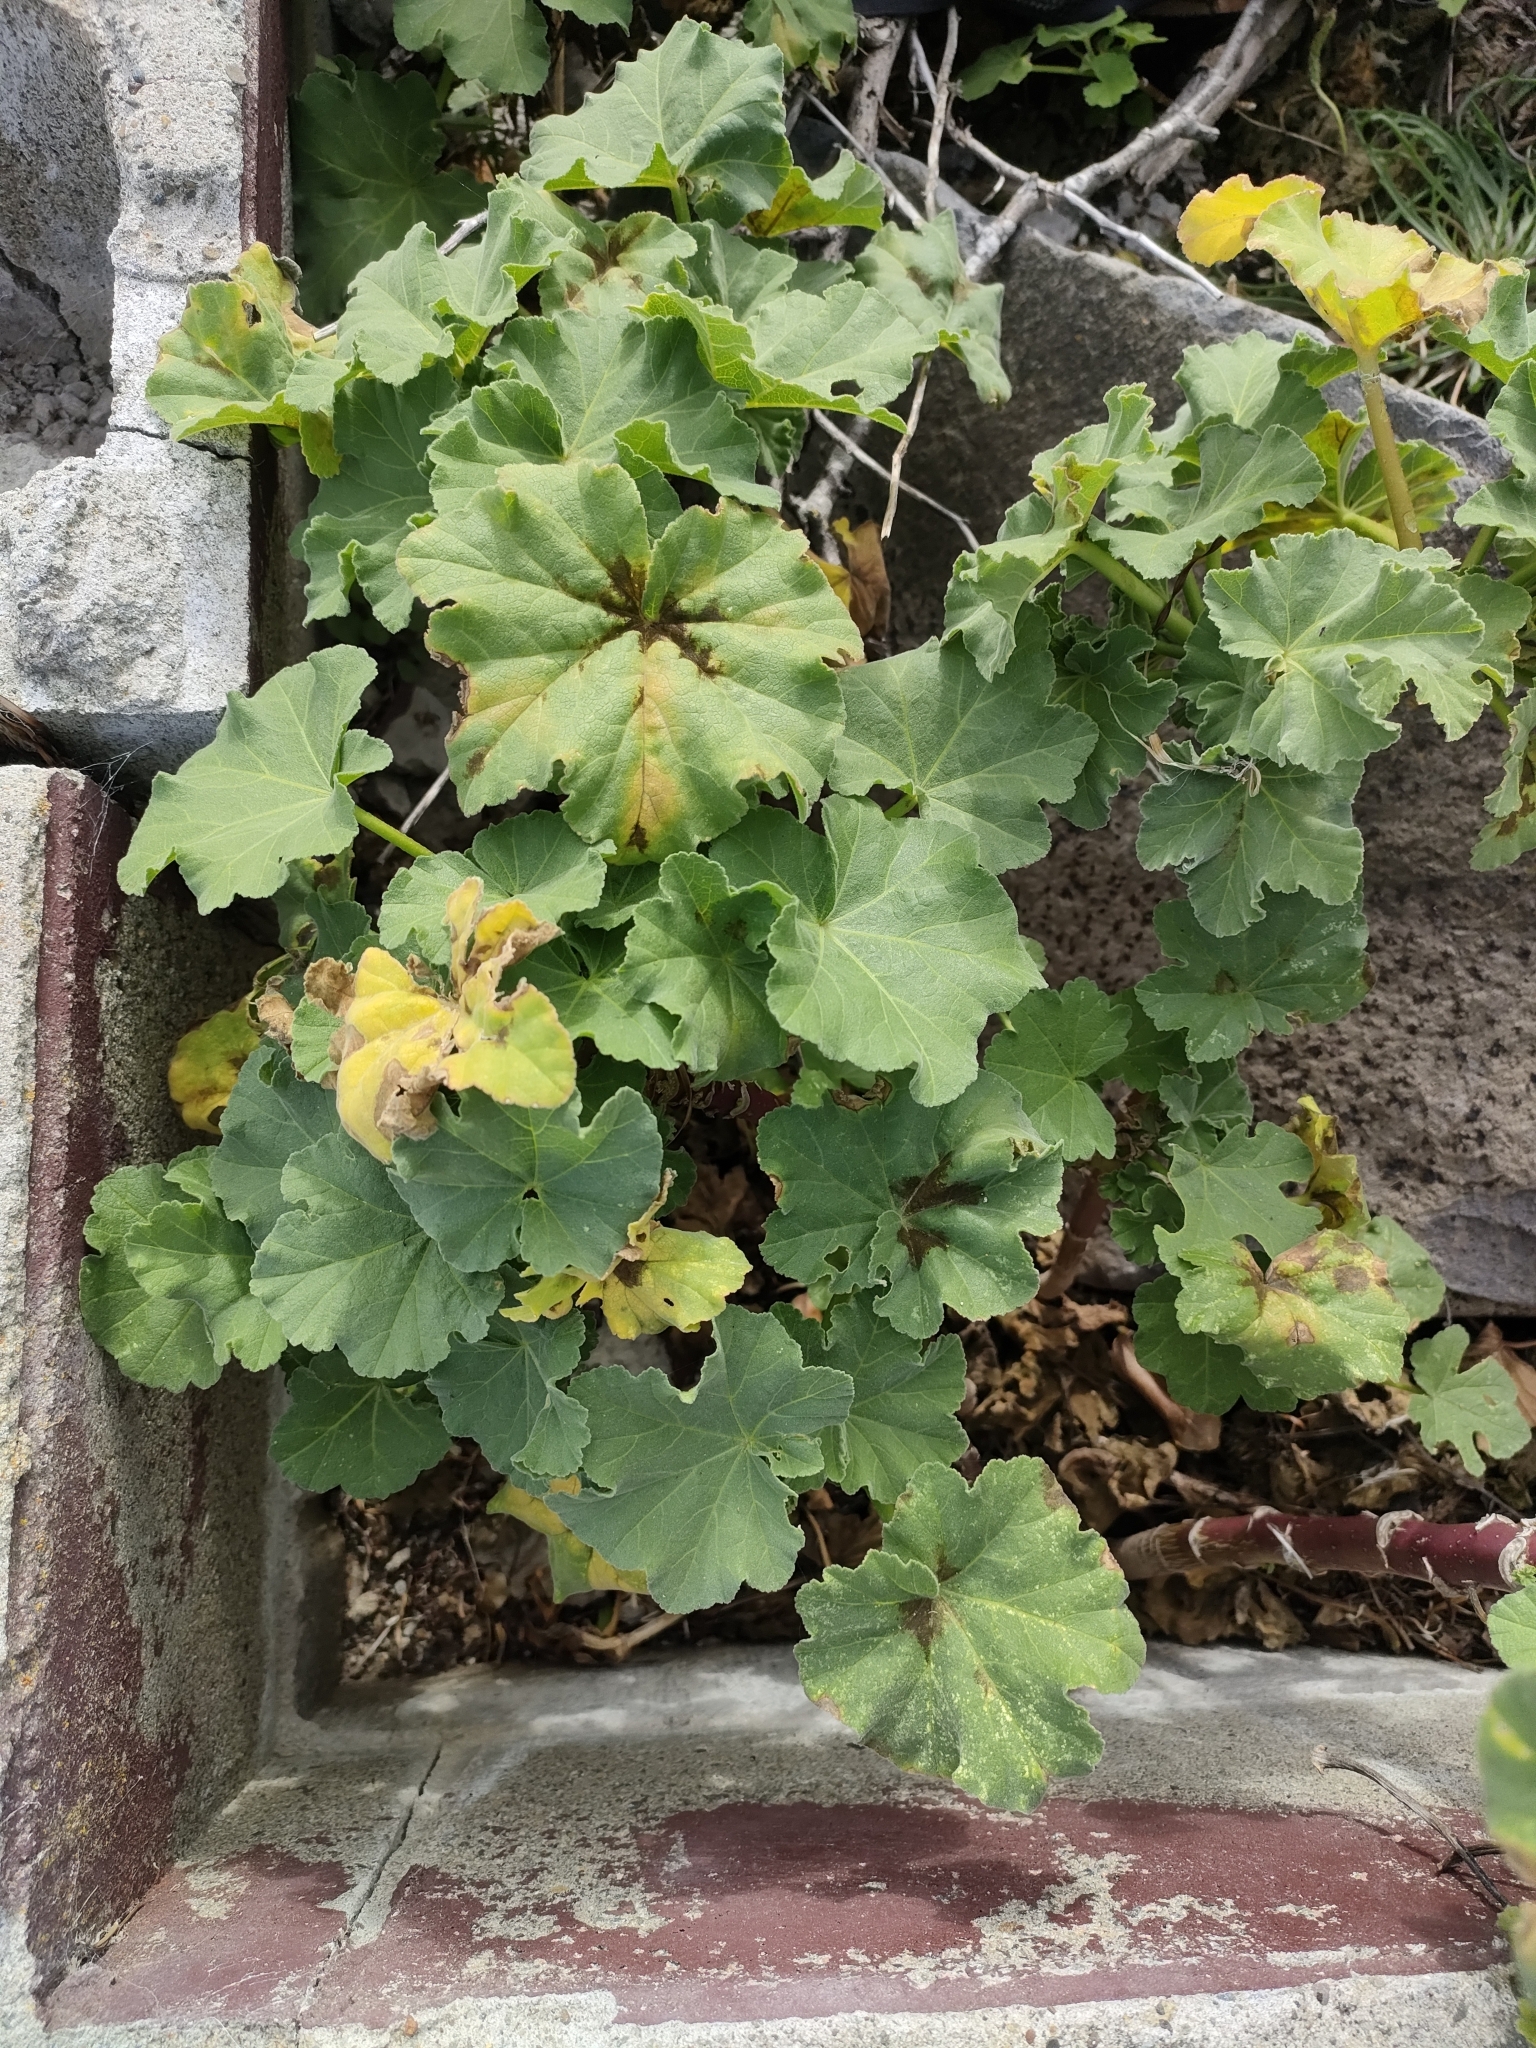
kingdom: Plantae
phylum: Tracheophyta
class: Magnoliopsida
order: Malvales
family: Malvaceae
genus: Malva
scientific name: Malva arborea
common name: Tree mallow
